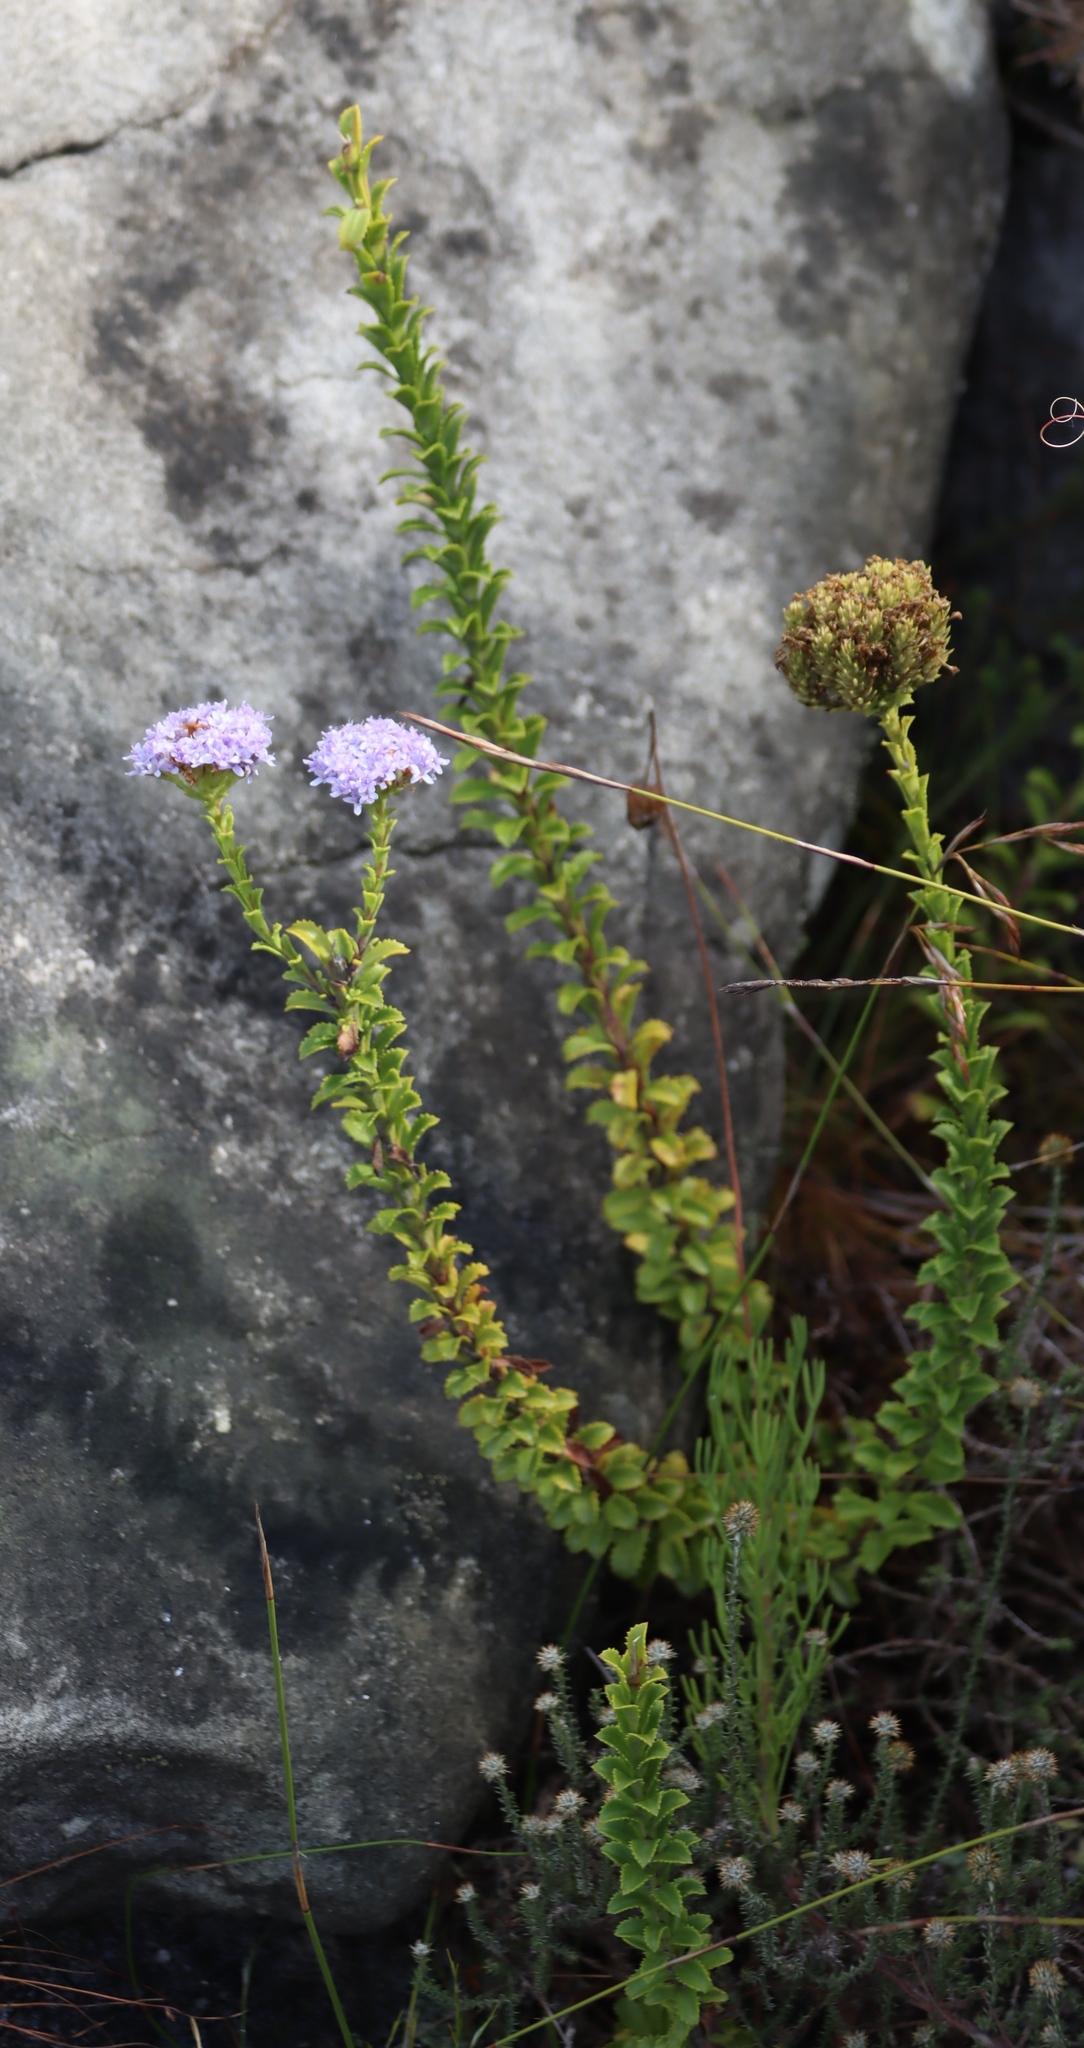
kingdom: Plantae
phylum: Tracheophyta
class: Magnoliopsida
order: Lamiales
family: Scrophulariaceae
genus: Pseudoselago
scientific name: Pseudoselago serrata
